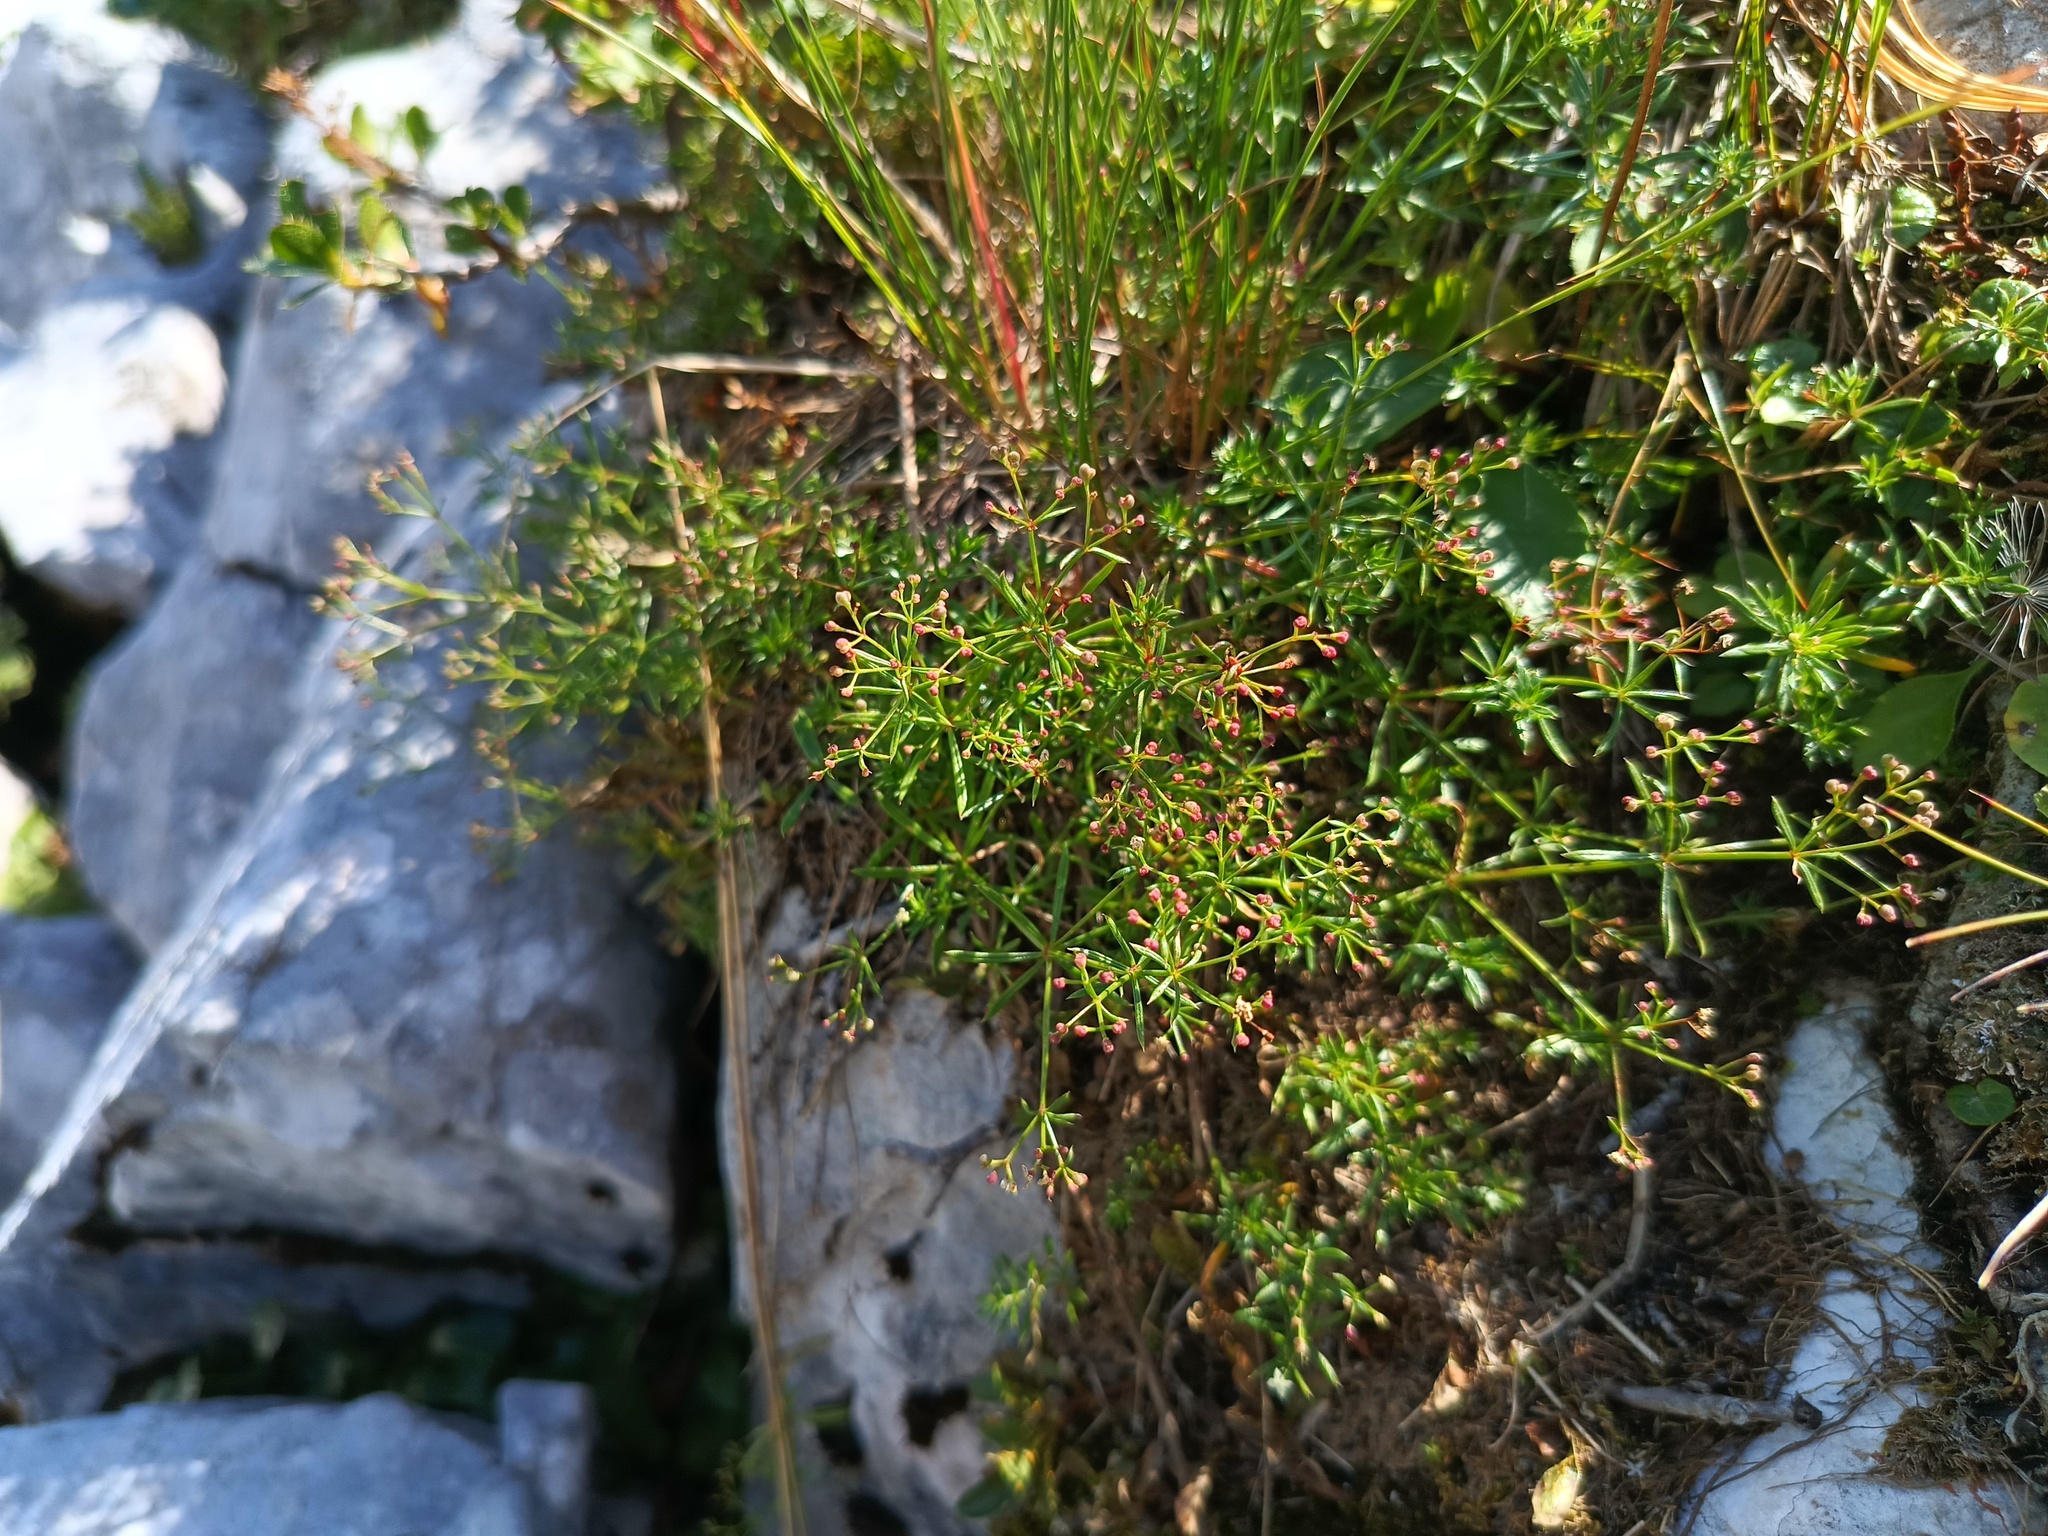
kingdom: Plantae
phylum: Tracheophyta
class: Magnoliopsida
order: Gentianales
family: Rubiaceae
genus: Galium
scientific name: Galium anisophyllon
